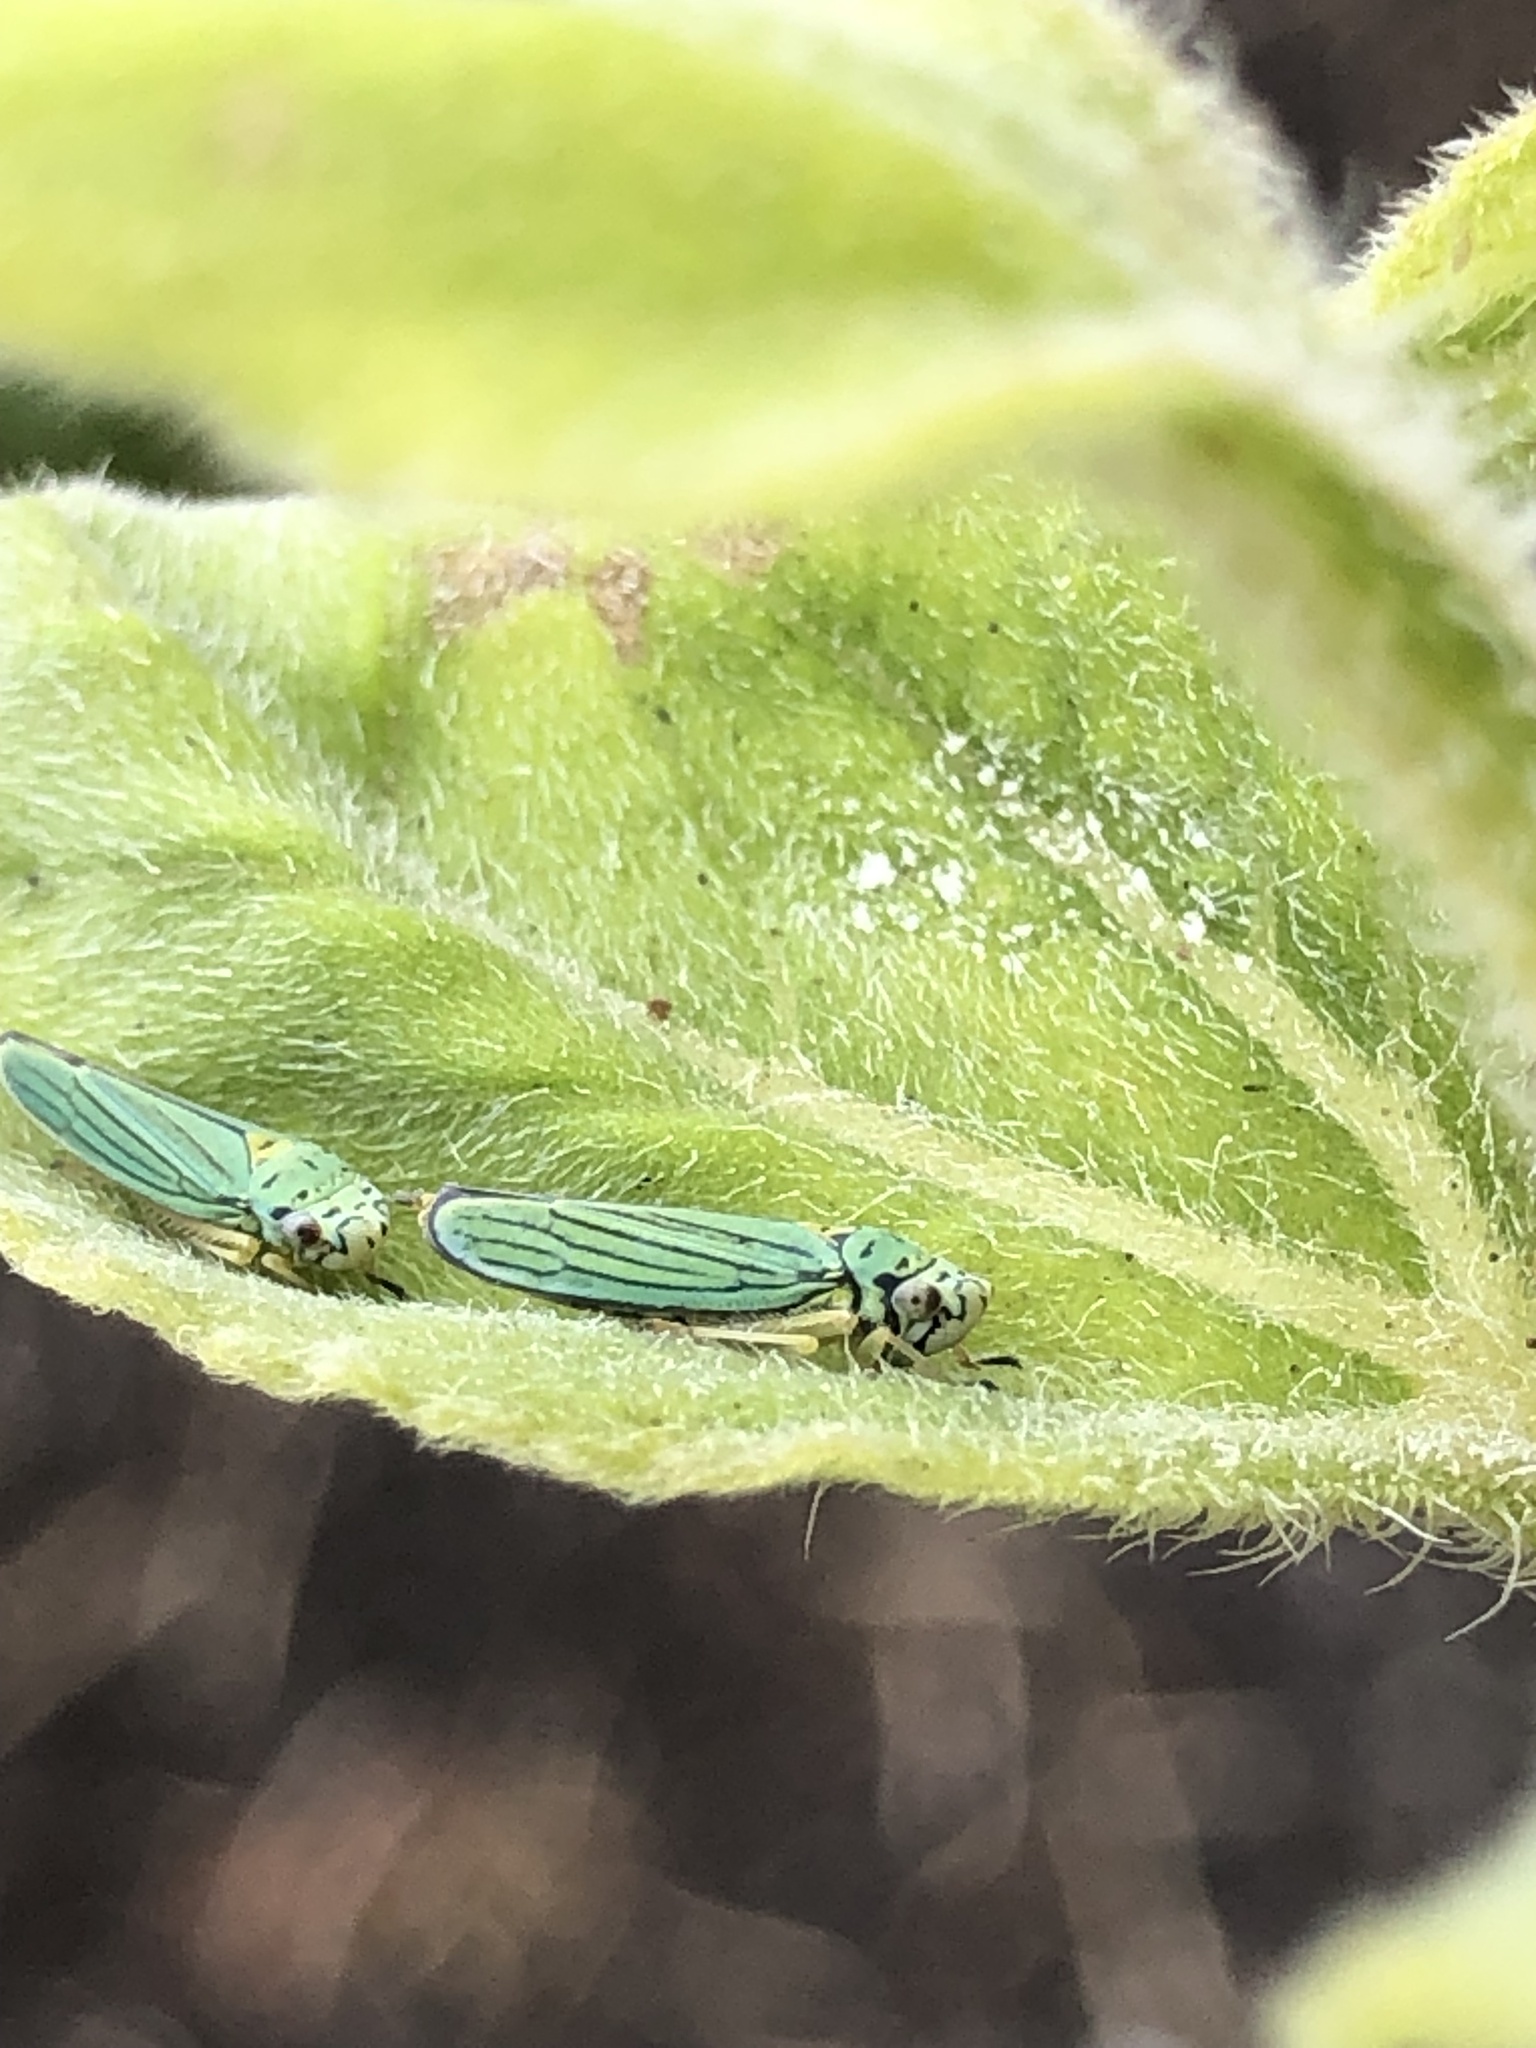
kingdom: Animalia
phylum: Arthropoda
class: Insecta
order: Hemiptera
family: Cicadellidae
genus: Graphocephala
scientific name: Graphocephala atropunctata
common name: Blue-green sharpshooter
